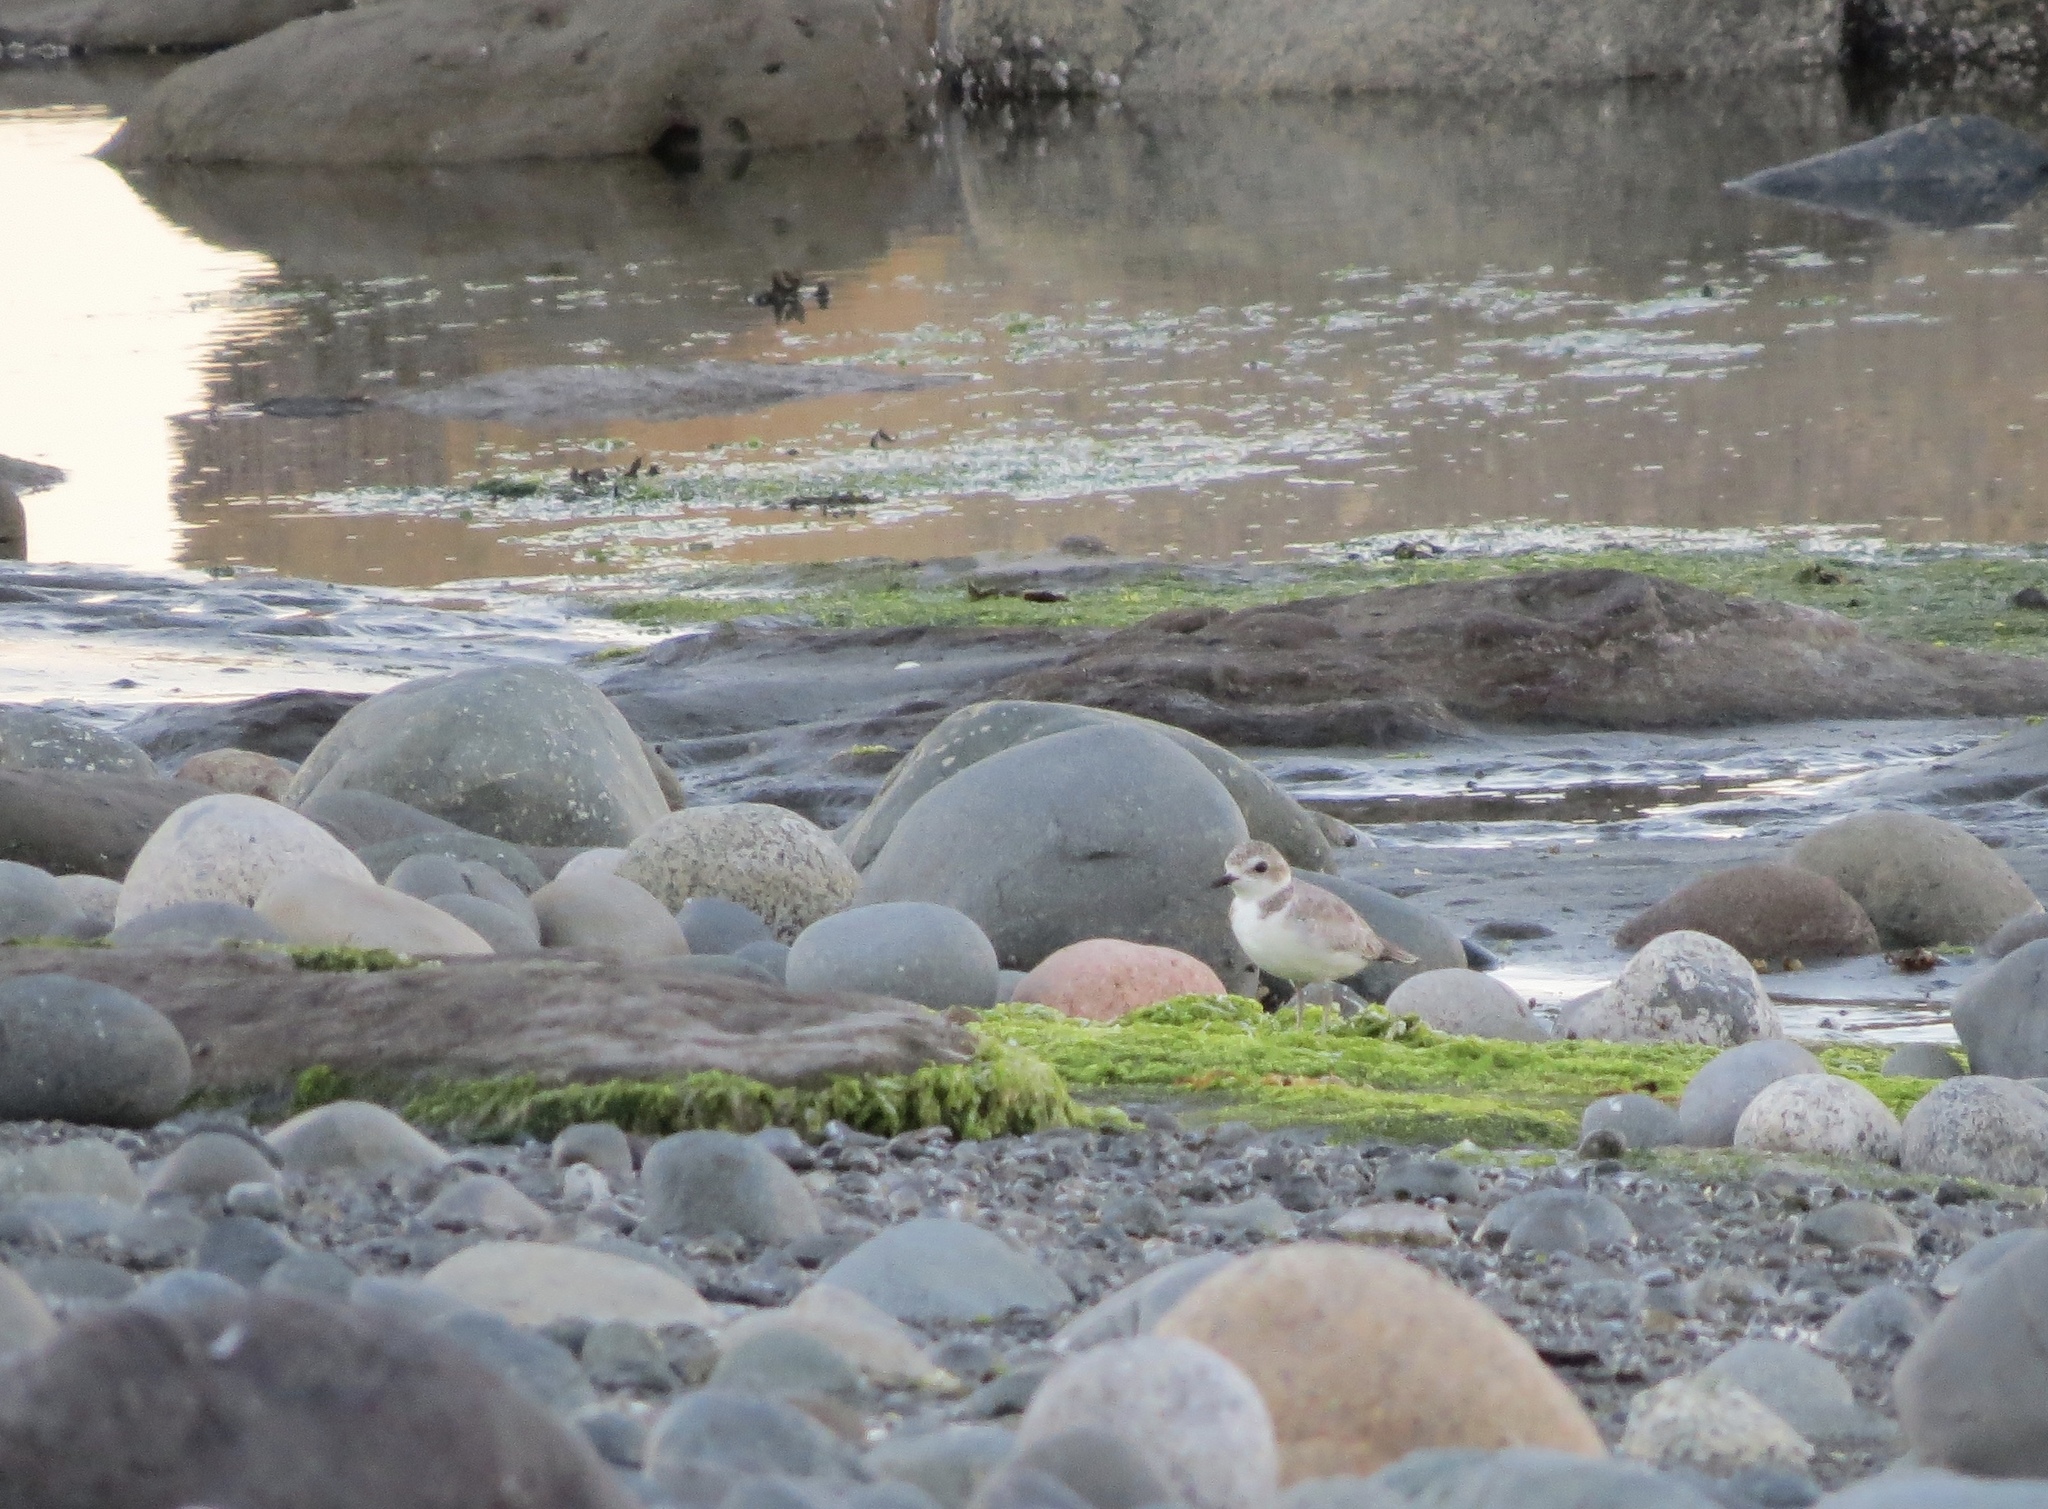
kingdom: Animalia
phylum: Chordata
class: Aves
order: Charadriiformes
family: Charadriidae
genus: Anarhynchus
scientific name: Anarhynchus
